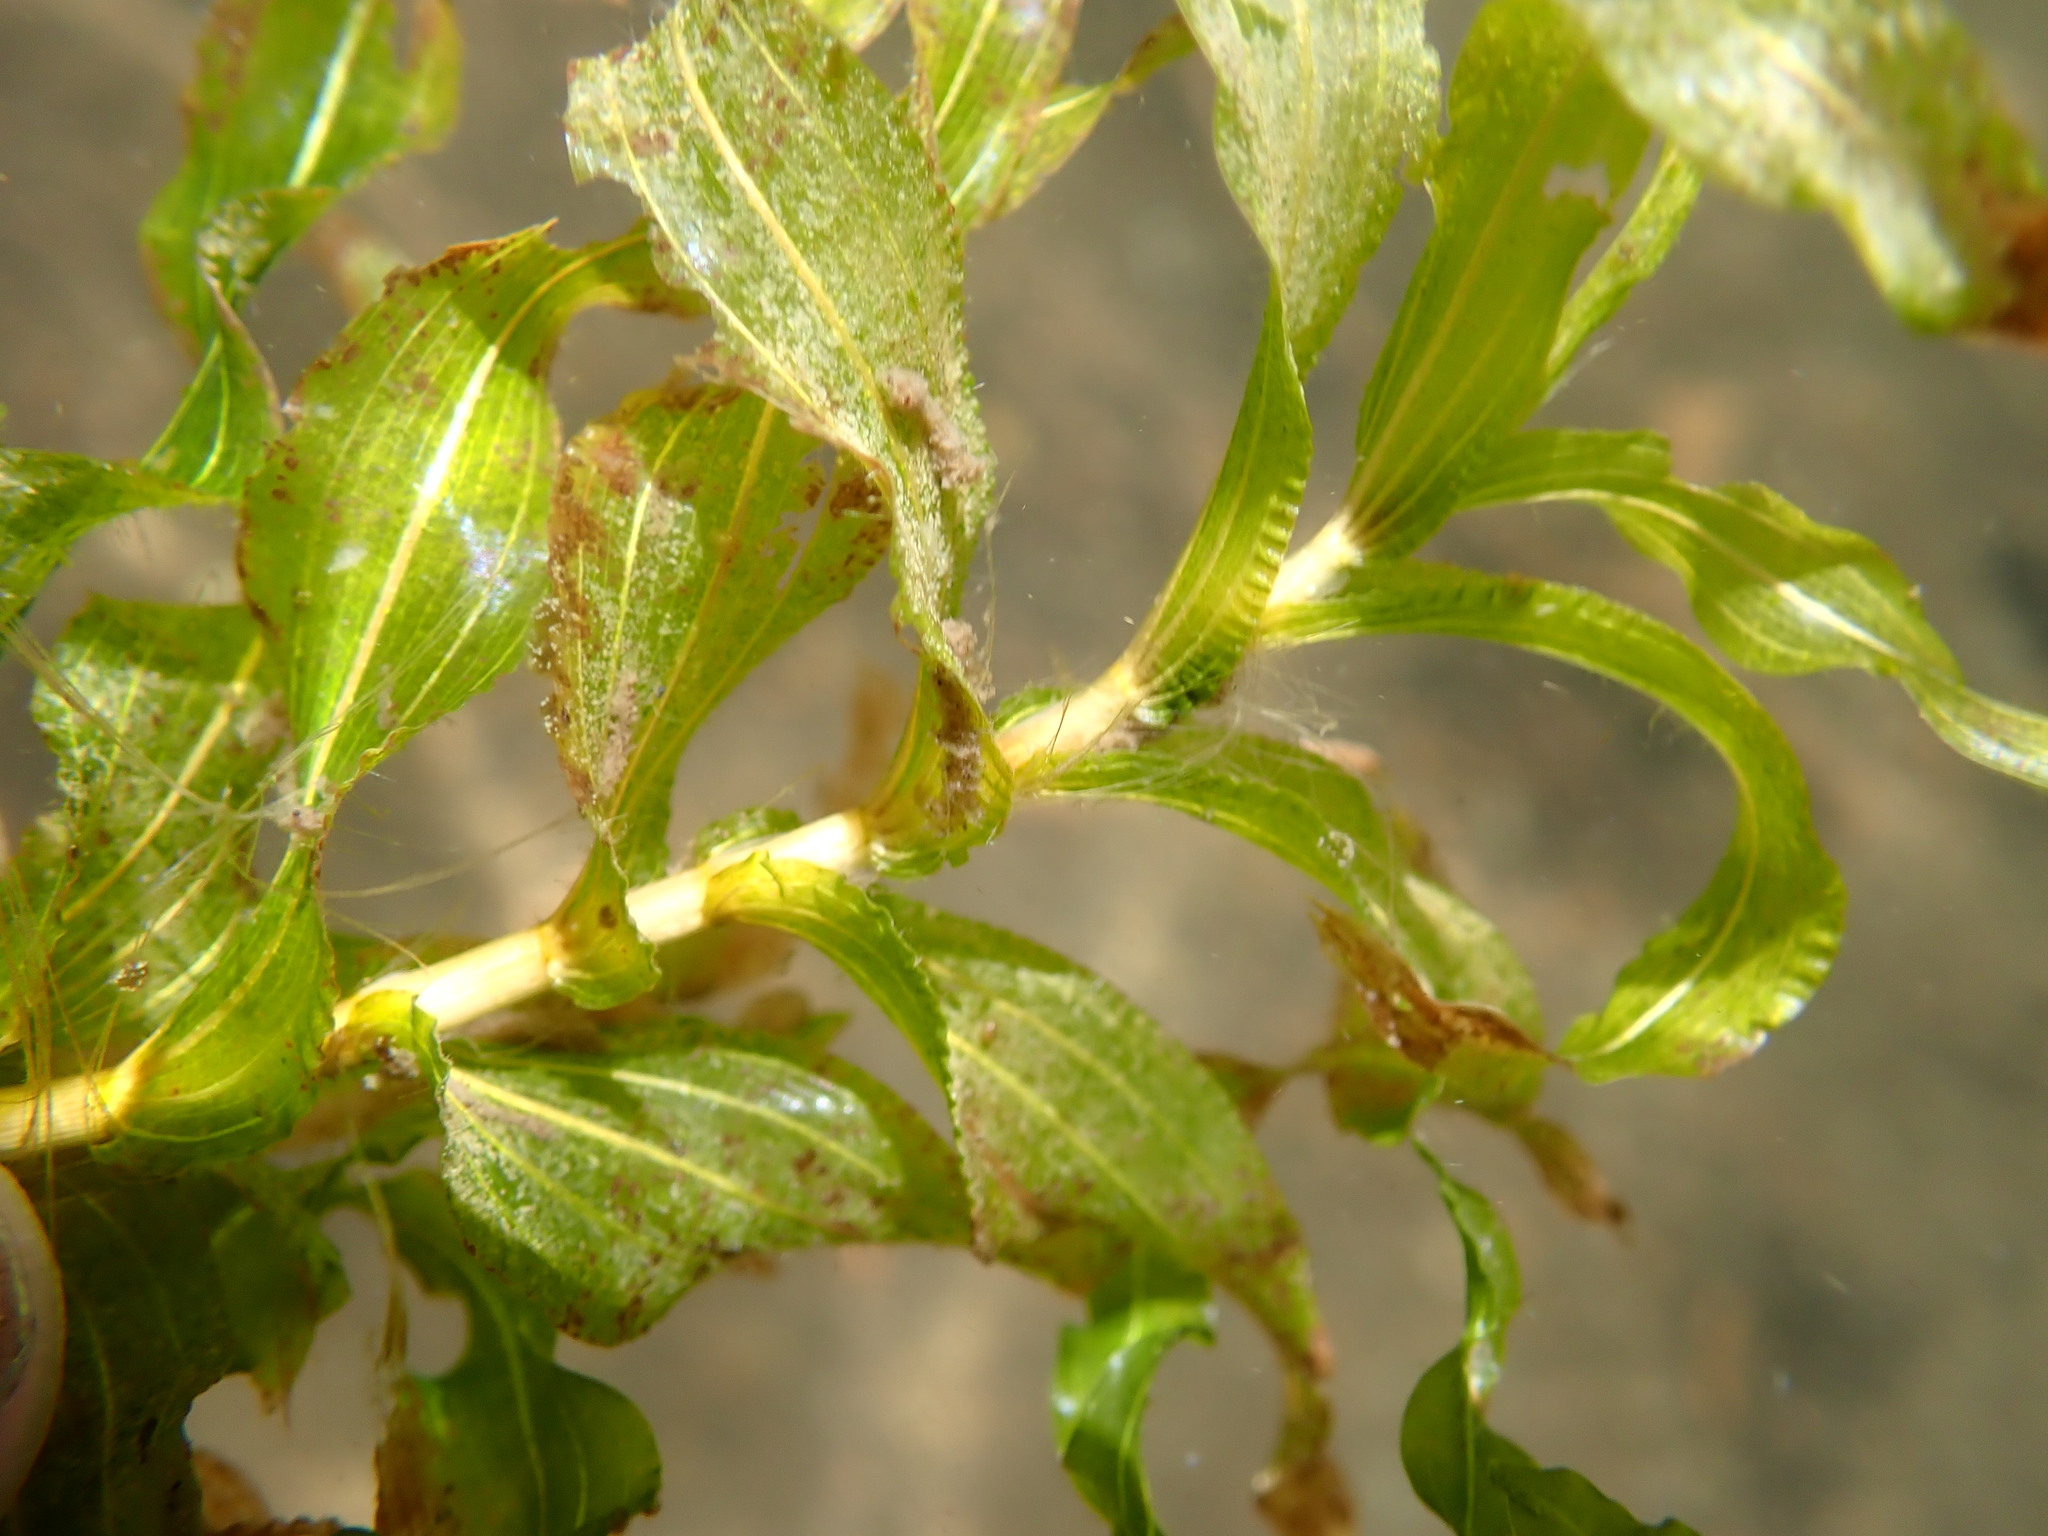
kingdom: Plantae
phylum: Tracheophyta
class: Liliopsida
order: Alismatales
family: Potamogetonaceae
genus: Potamogeton
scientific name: Potamogeton richardsonii
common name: Richardson's pondweed
